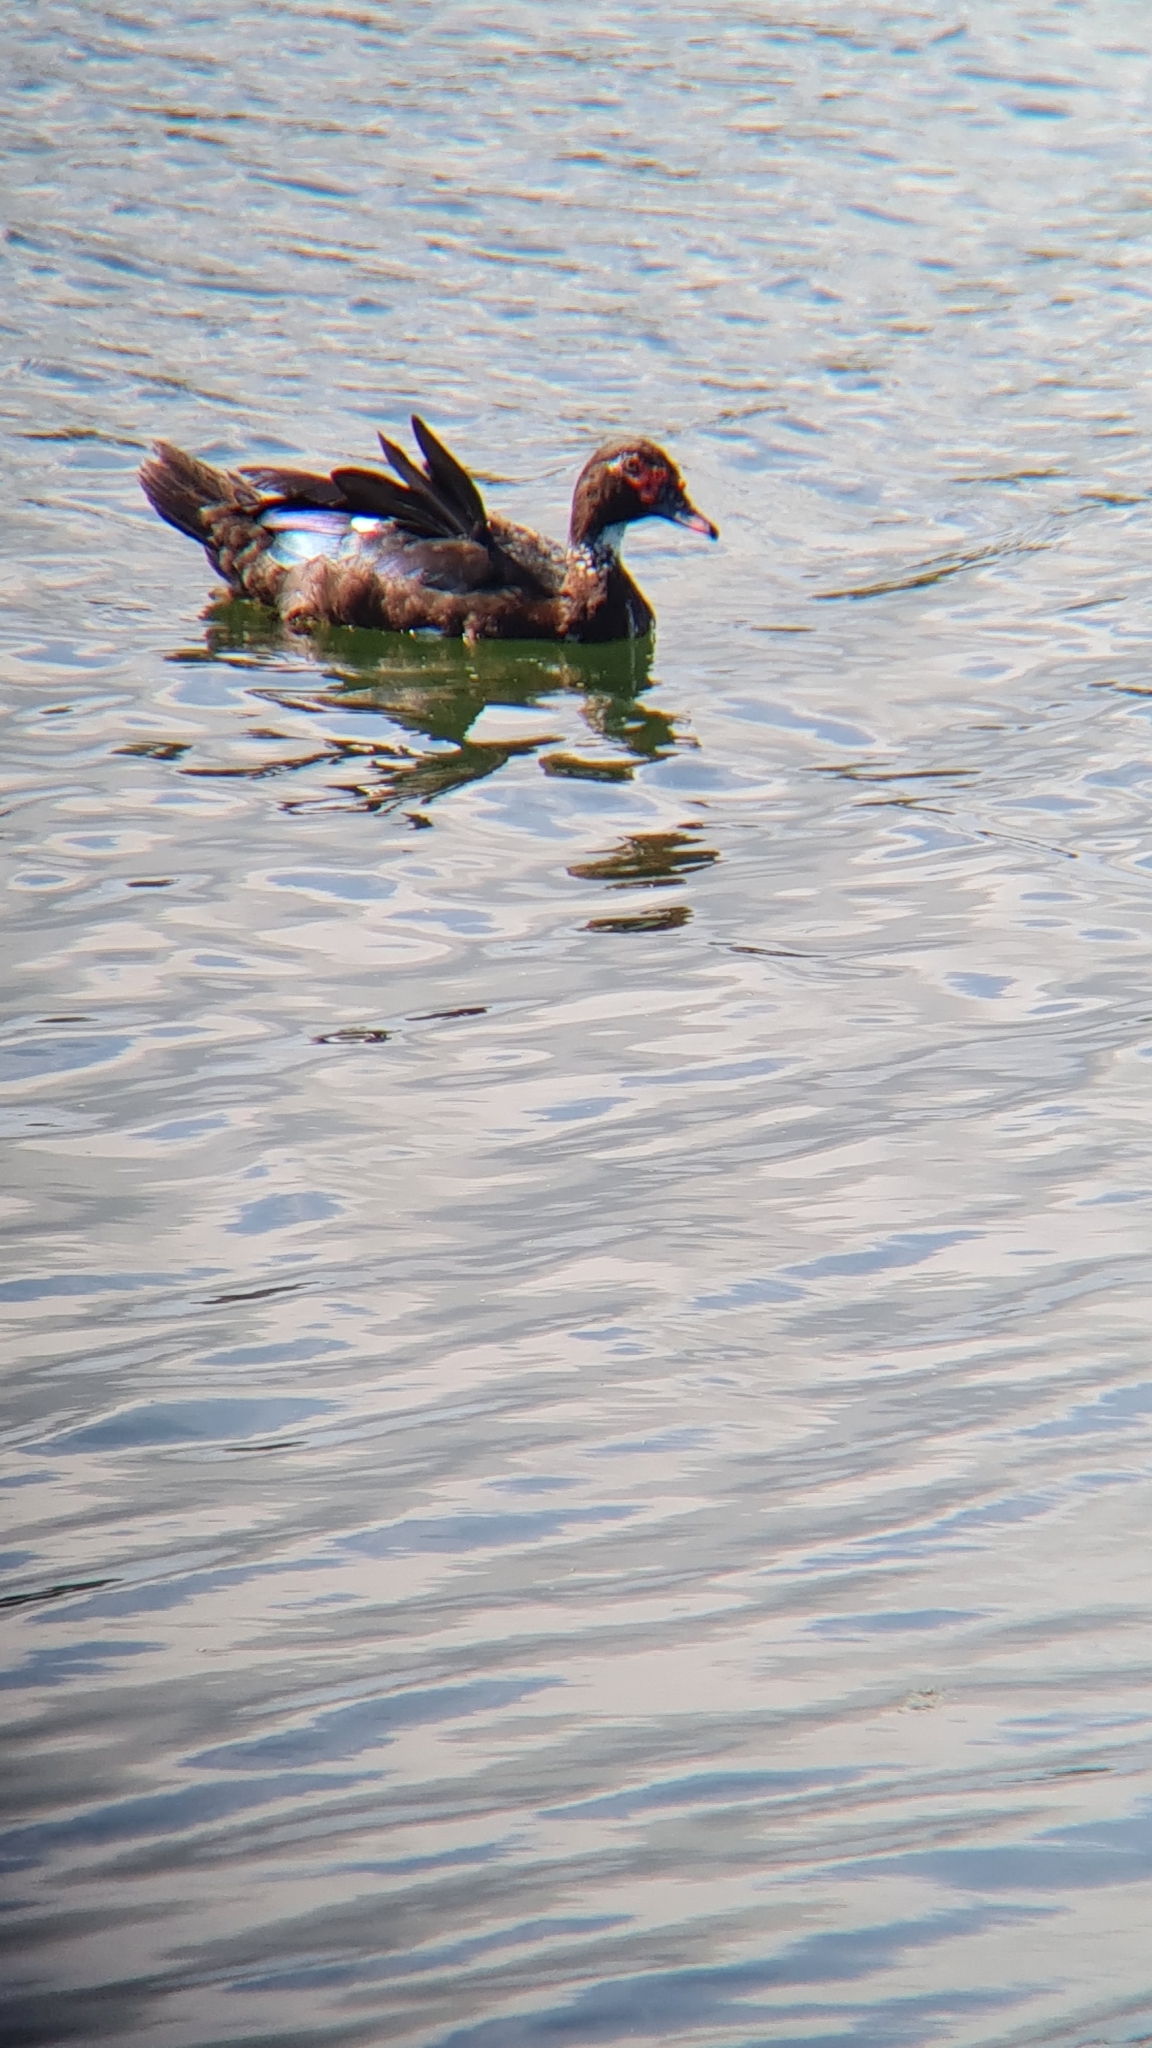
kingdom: Animalia
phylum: Chordata
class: Aves
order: Anseriformes
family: Anatidae
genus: Cairina
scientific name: Cairina moschata
